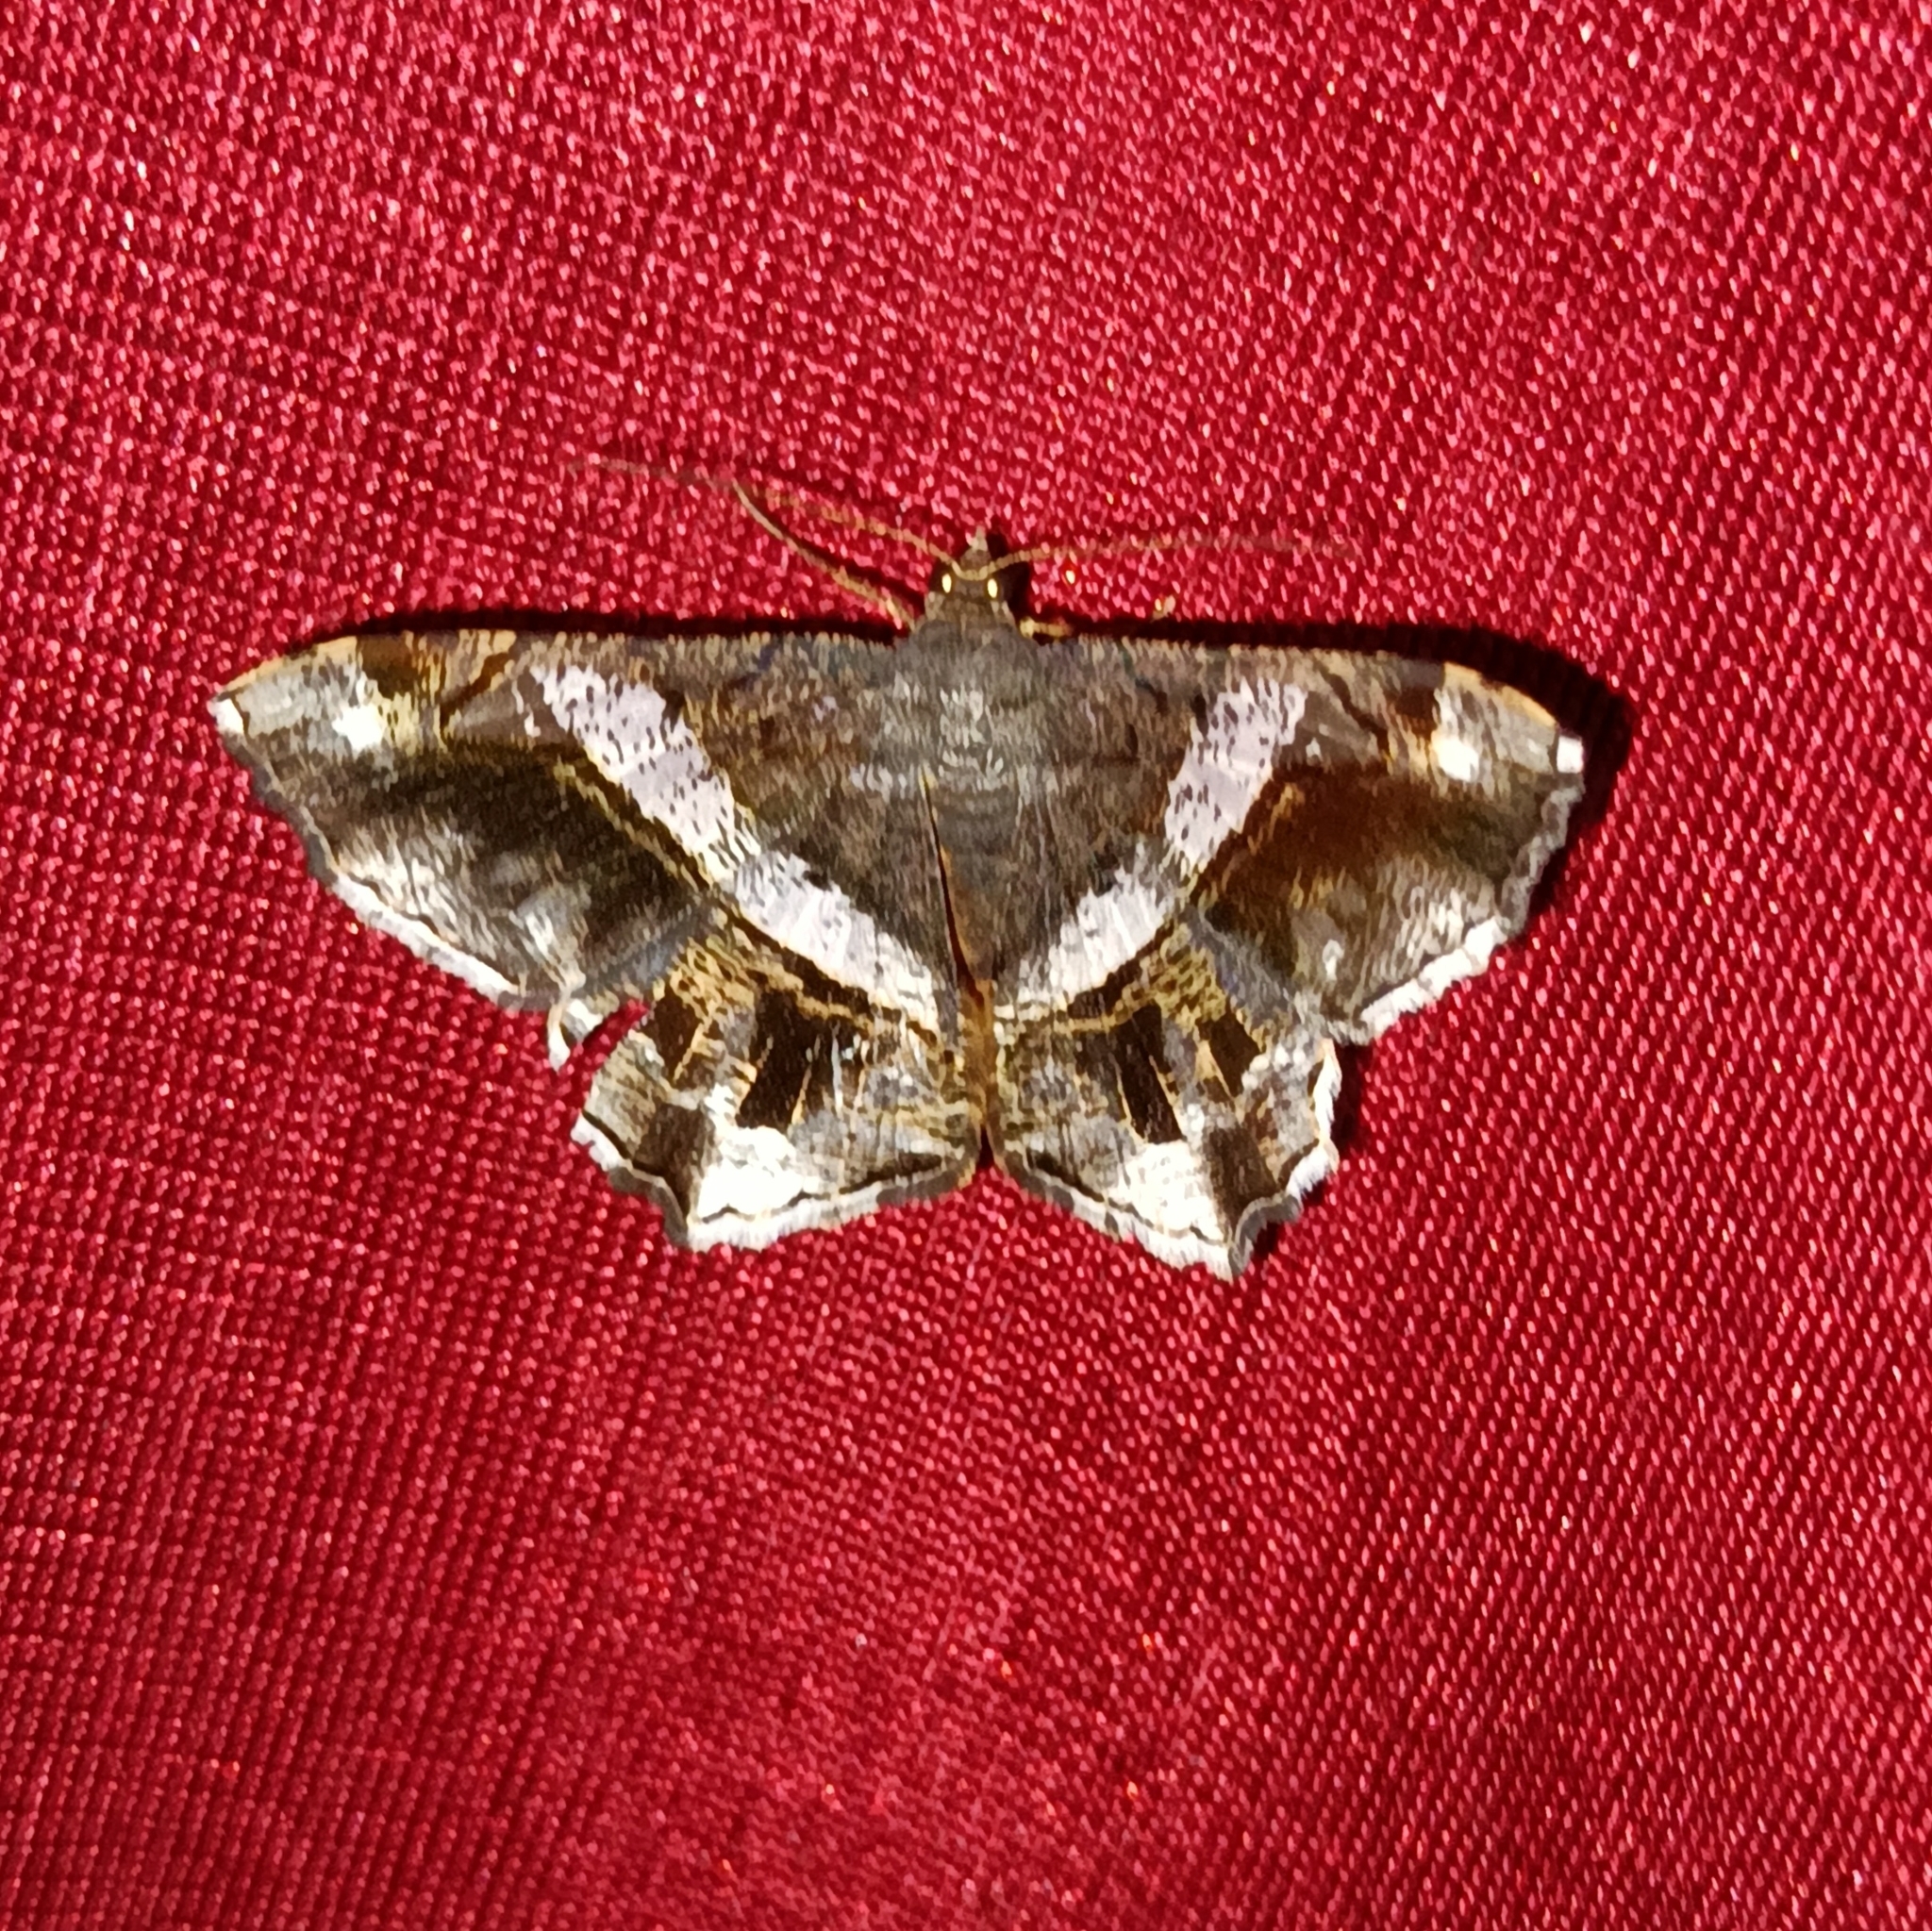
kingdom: Animalia
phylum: Arthropoda
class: Insecta
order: Lepidoptera
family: Geometridae
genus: Chiasmia
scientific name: Chiasmia nora
